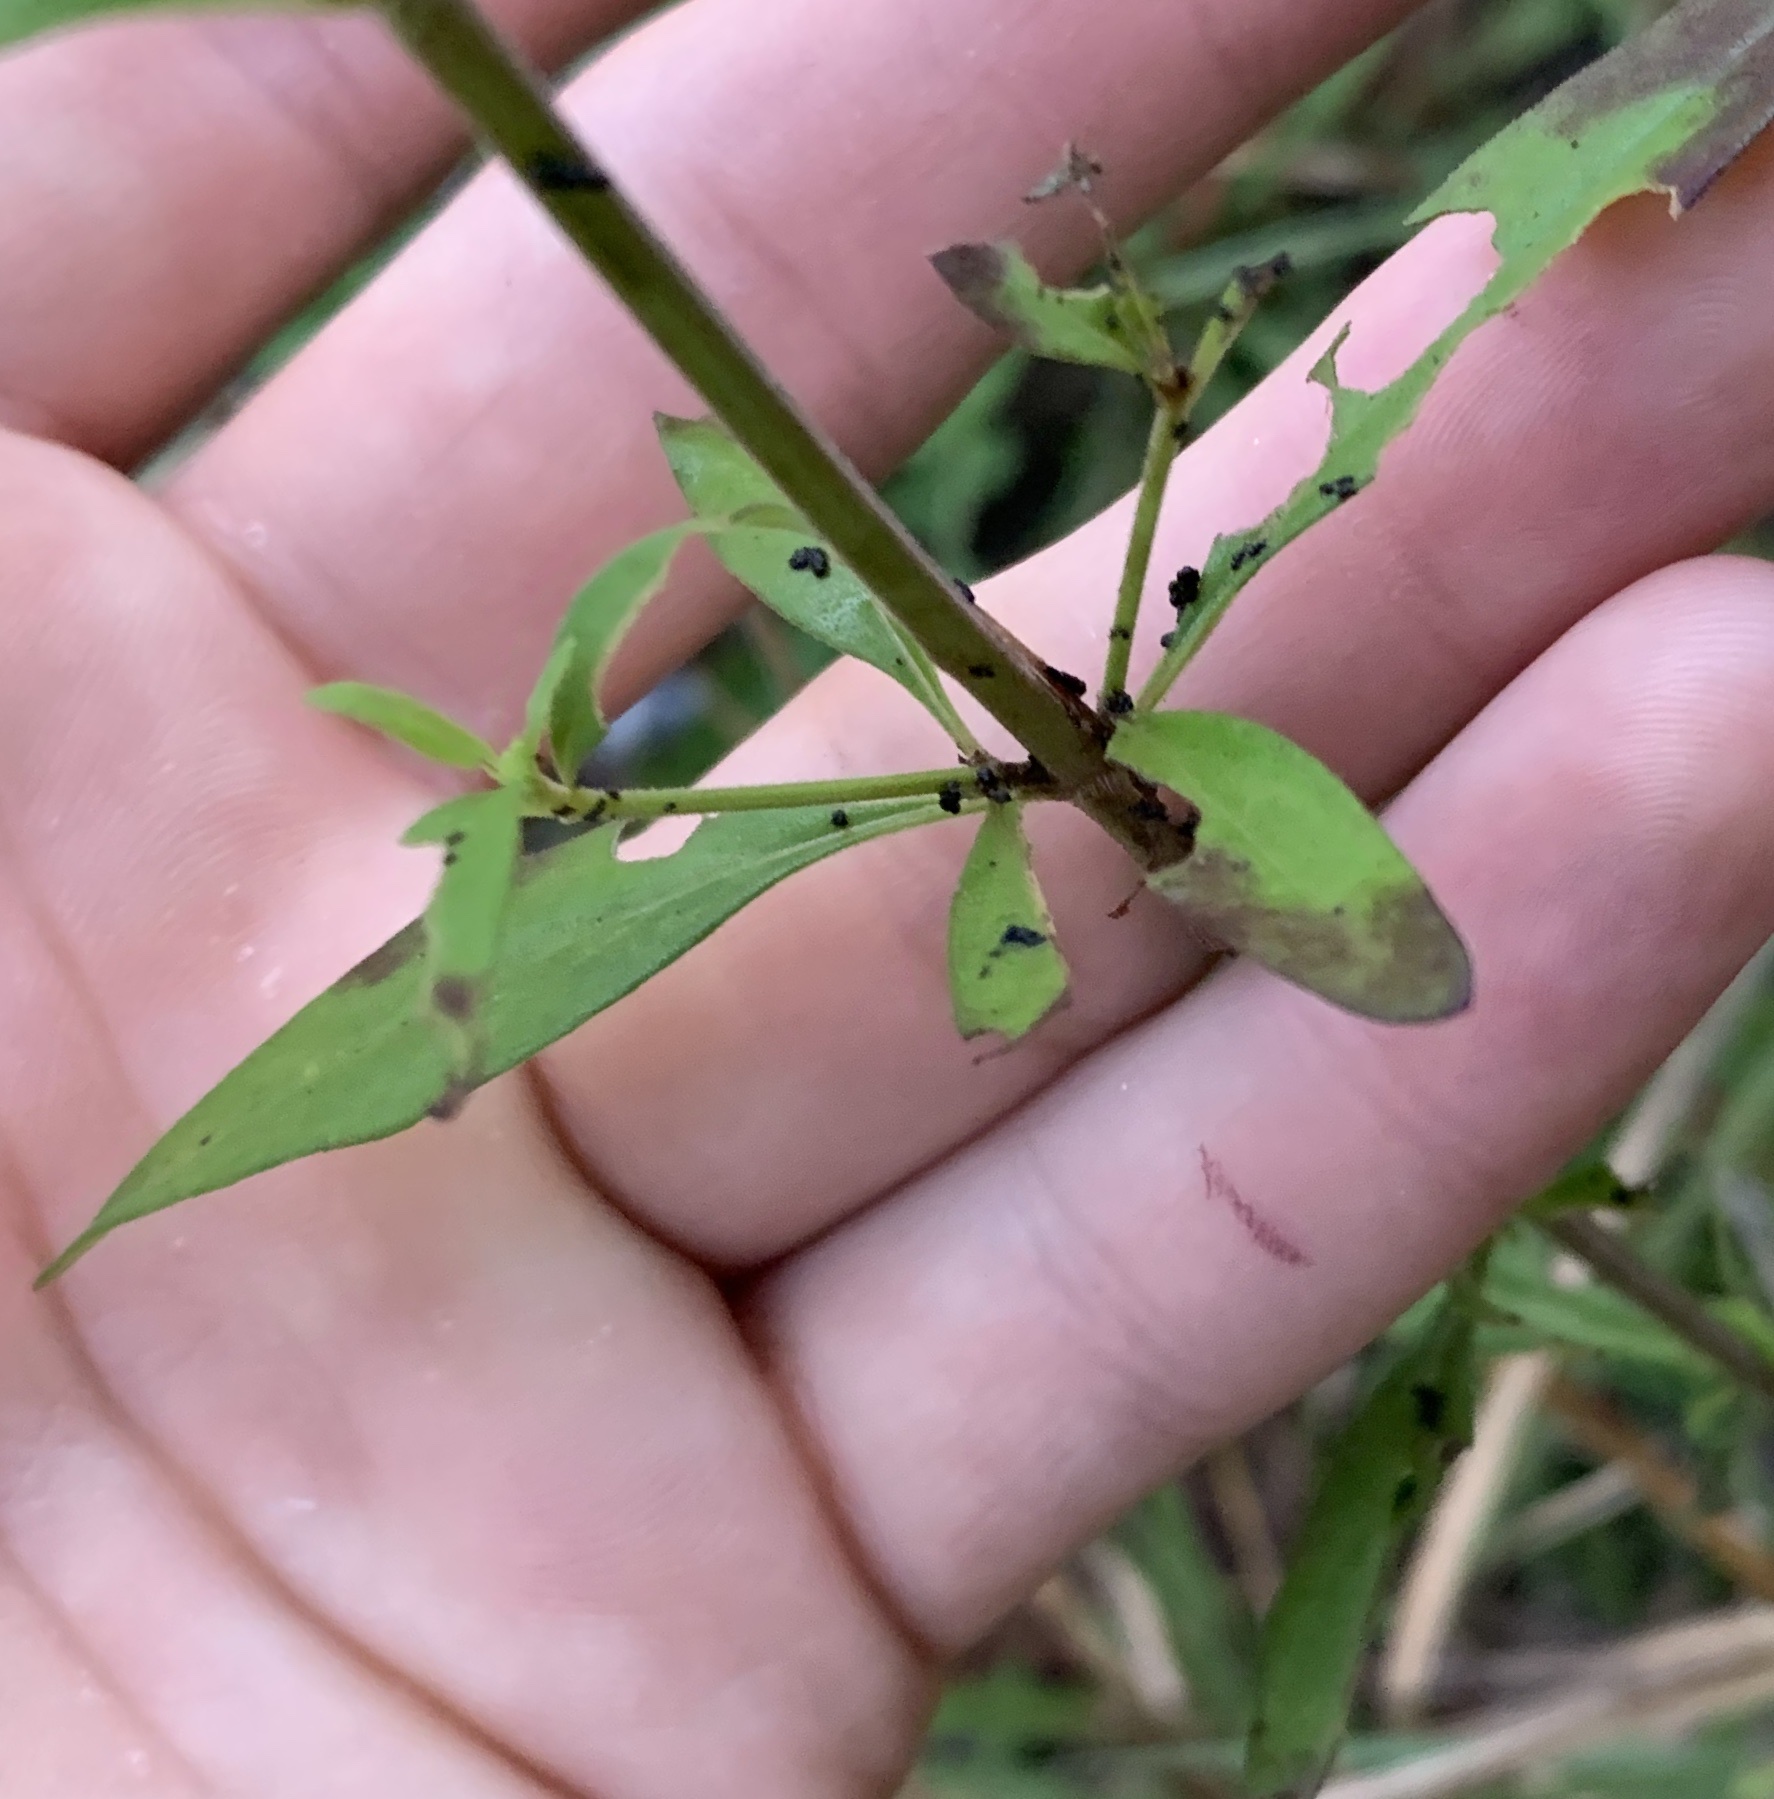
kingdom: Plantae
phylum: Tracheophyta
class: Magnoliopsida
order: Lamiales
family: Lamiaceae
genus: Trichostema
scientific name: Trichostema dichotomum
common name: Bastard pennyroyal
